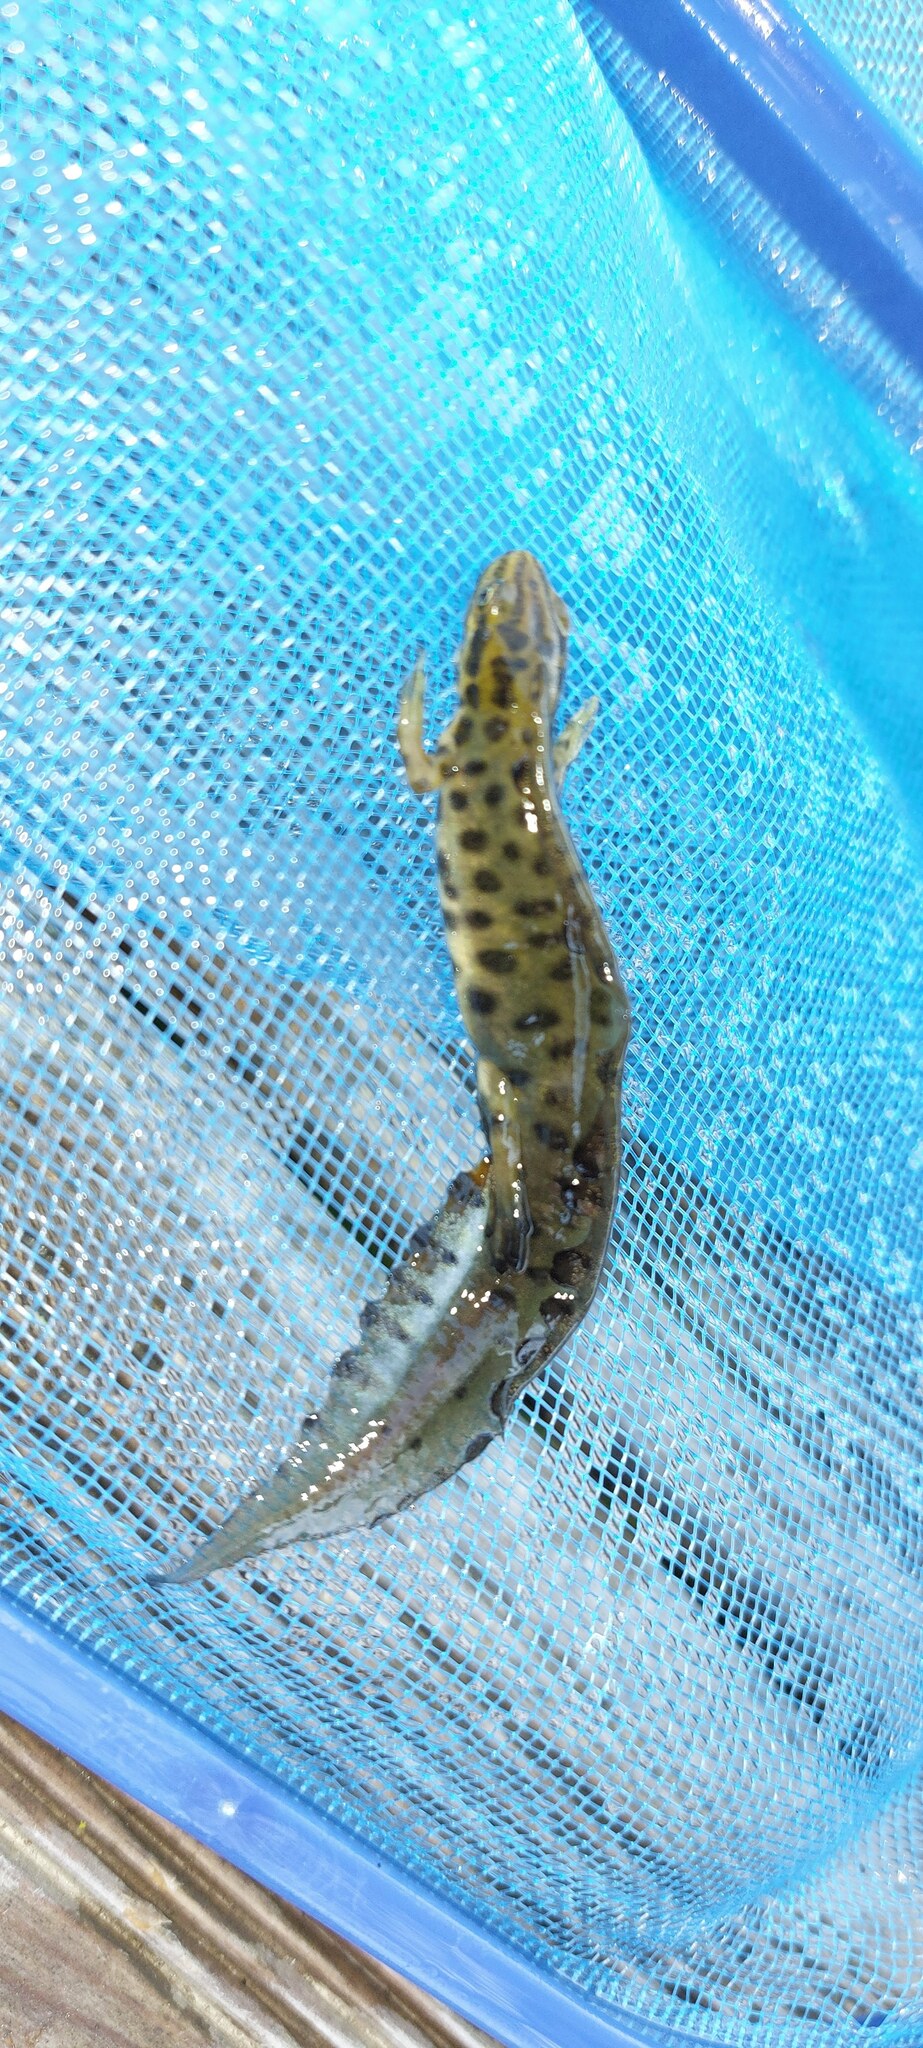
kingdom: Animalia
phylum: Chordata
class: Amphibia
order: Caudata
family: Salamandridae
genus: Lissotriton
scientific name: Lissotriton vulgaris
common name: Smooth newt
